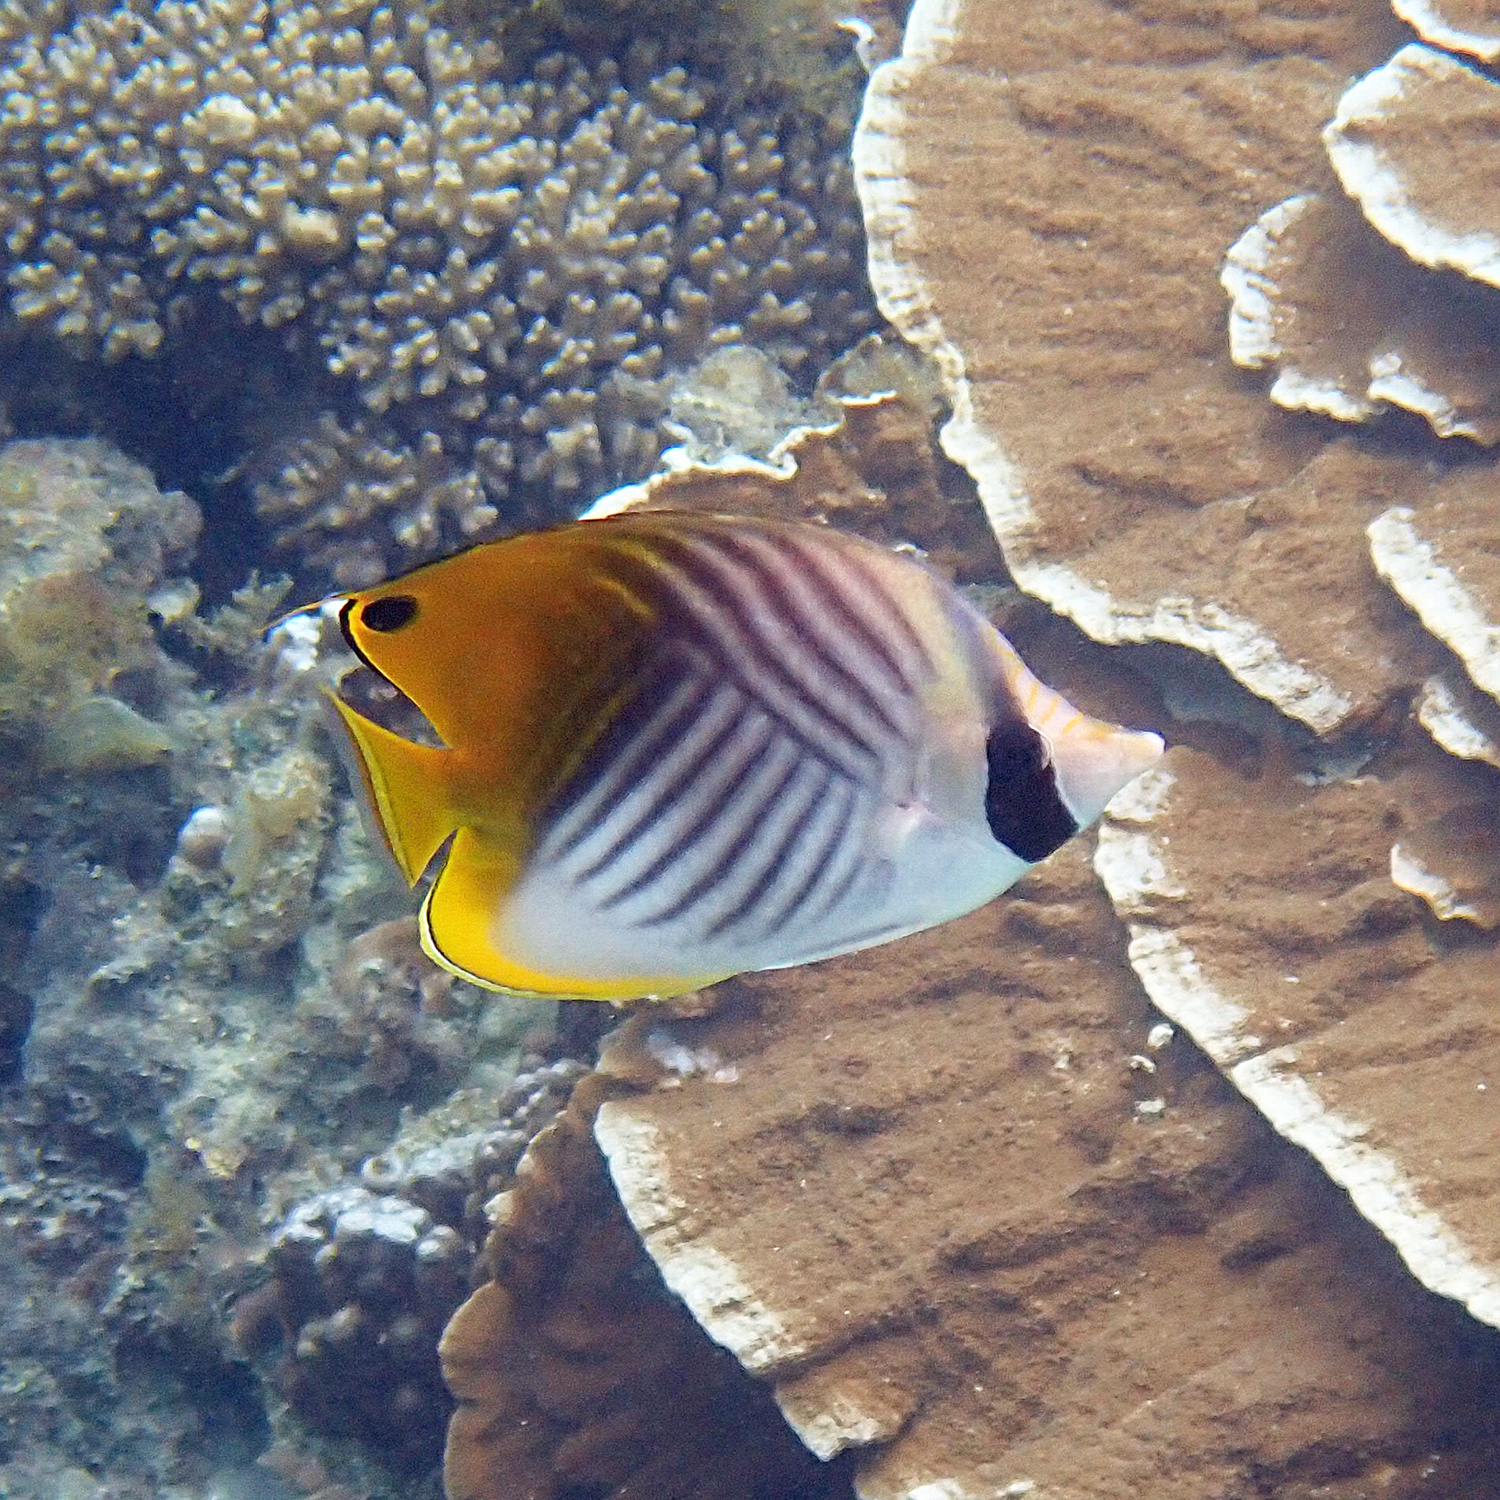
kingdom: Animalia
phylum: Chordata
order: Perciformes
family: Chaetodontidae
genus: Chaetodon
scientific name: Chaetodon auriga
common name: Threadfin butterflyfish
